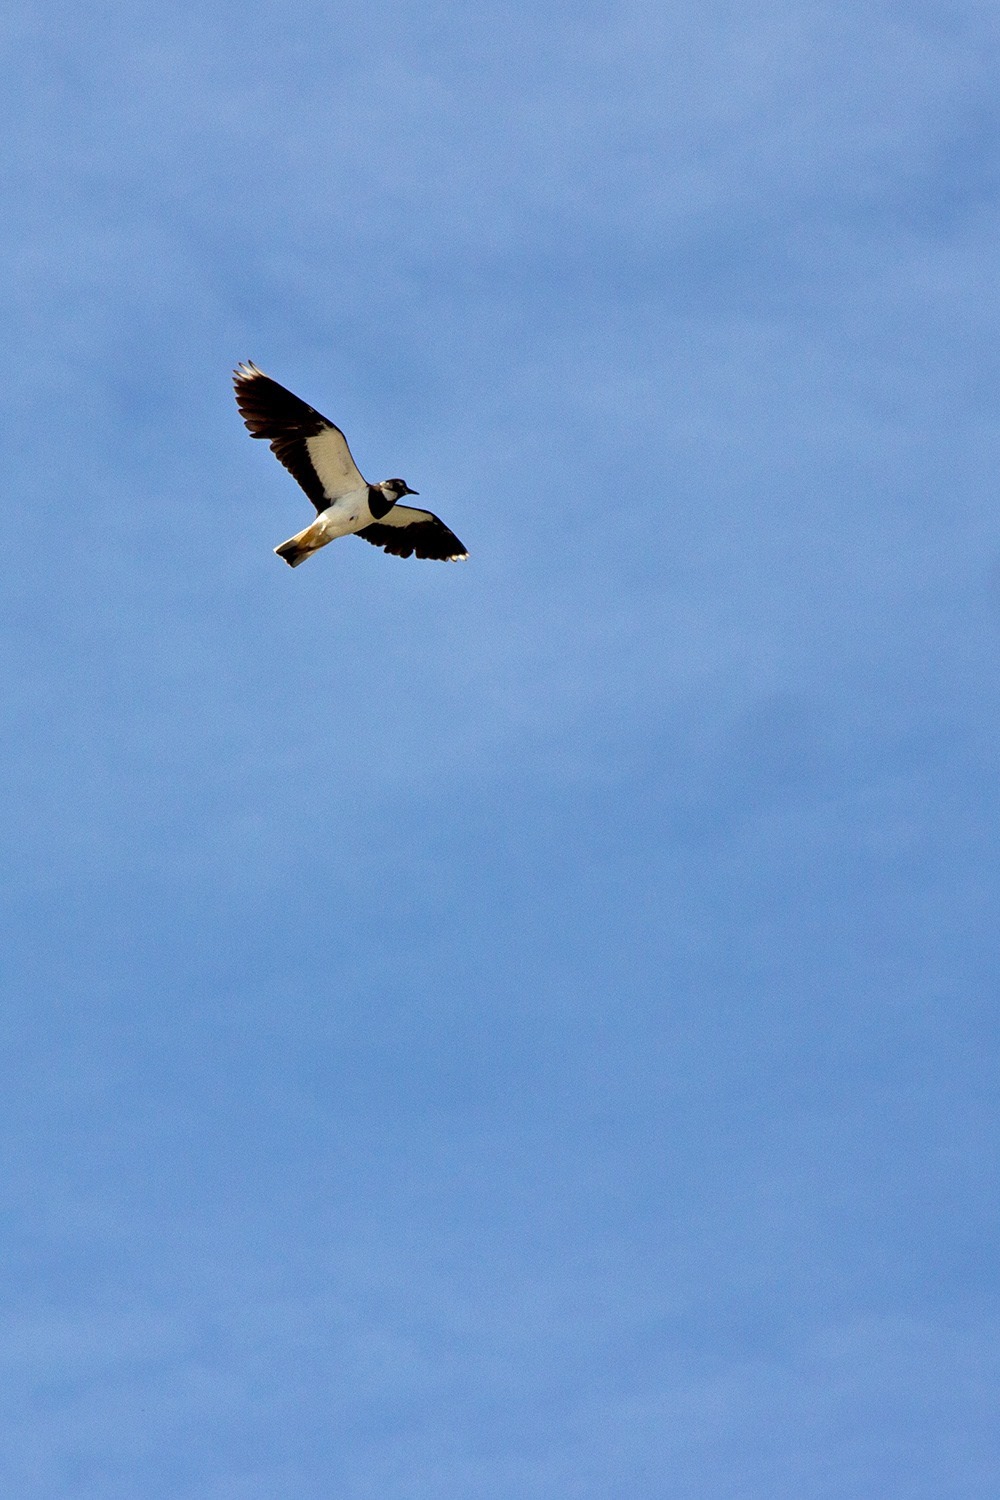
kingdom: Animalia
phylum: Chordata
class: Aves
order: Charadriiformes
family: Charadriidae
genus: Vanellus
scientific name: Vanellus vanellus
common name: Northern lapwing
